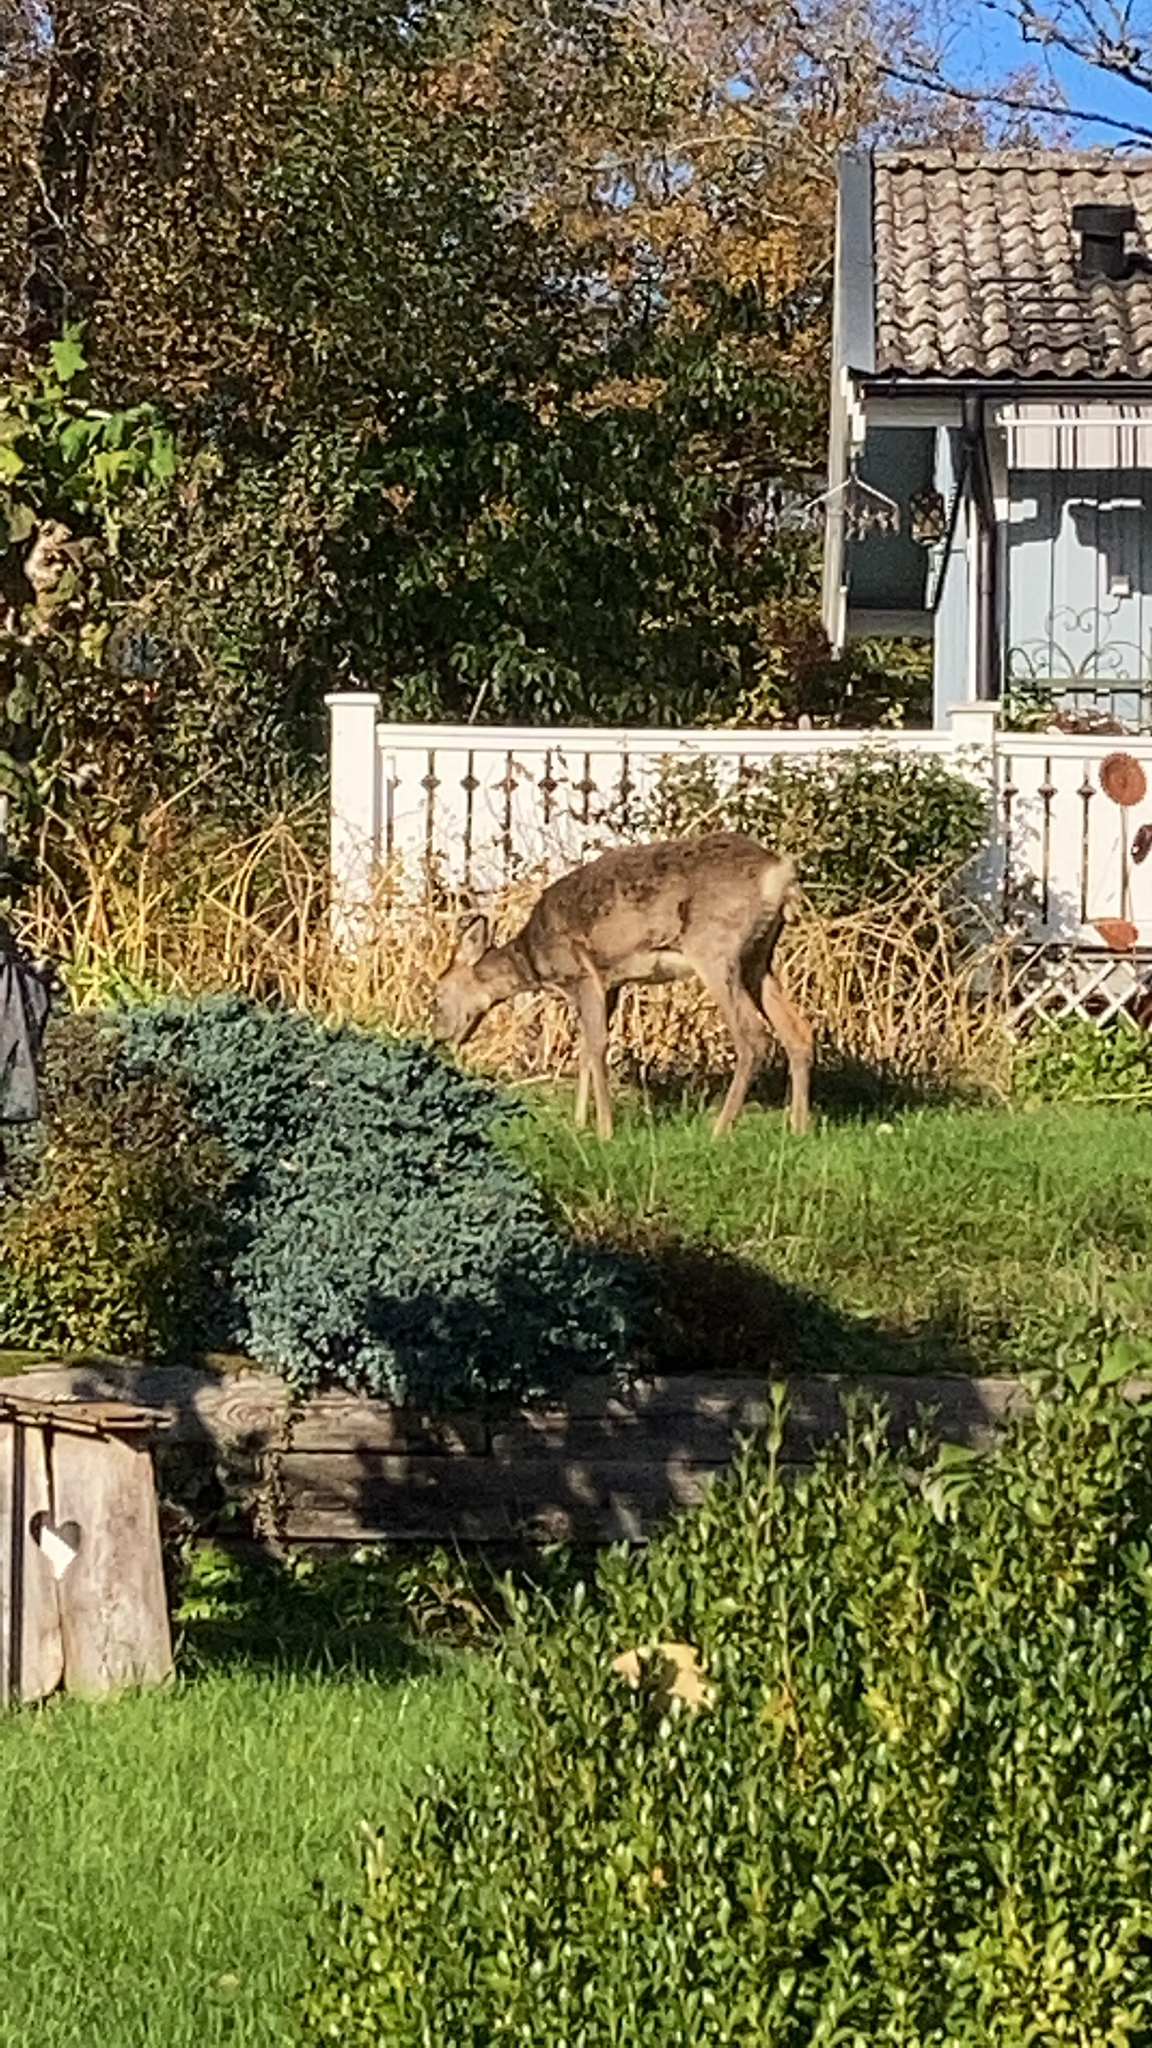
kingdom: Animalia
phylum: Chordata
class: Mammalia
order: Artiodactyla
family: Cervidae
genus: Capreolus
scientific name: Capreolus capreolus
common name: Western roe deer
